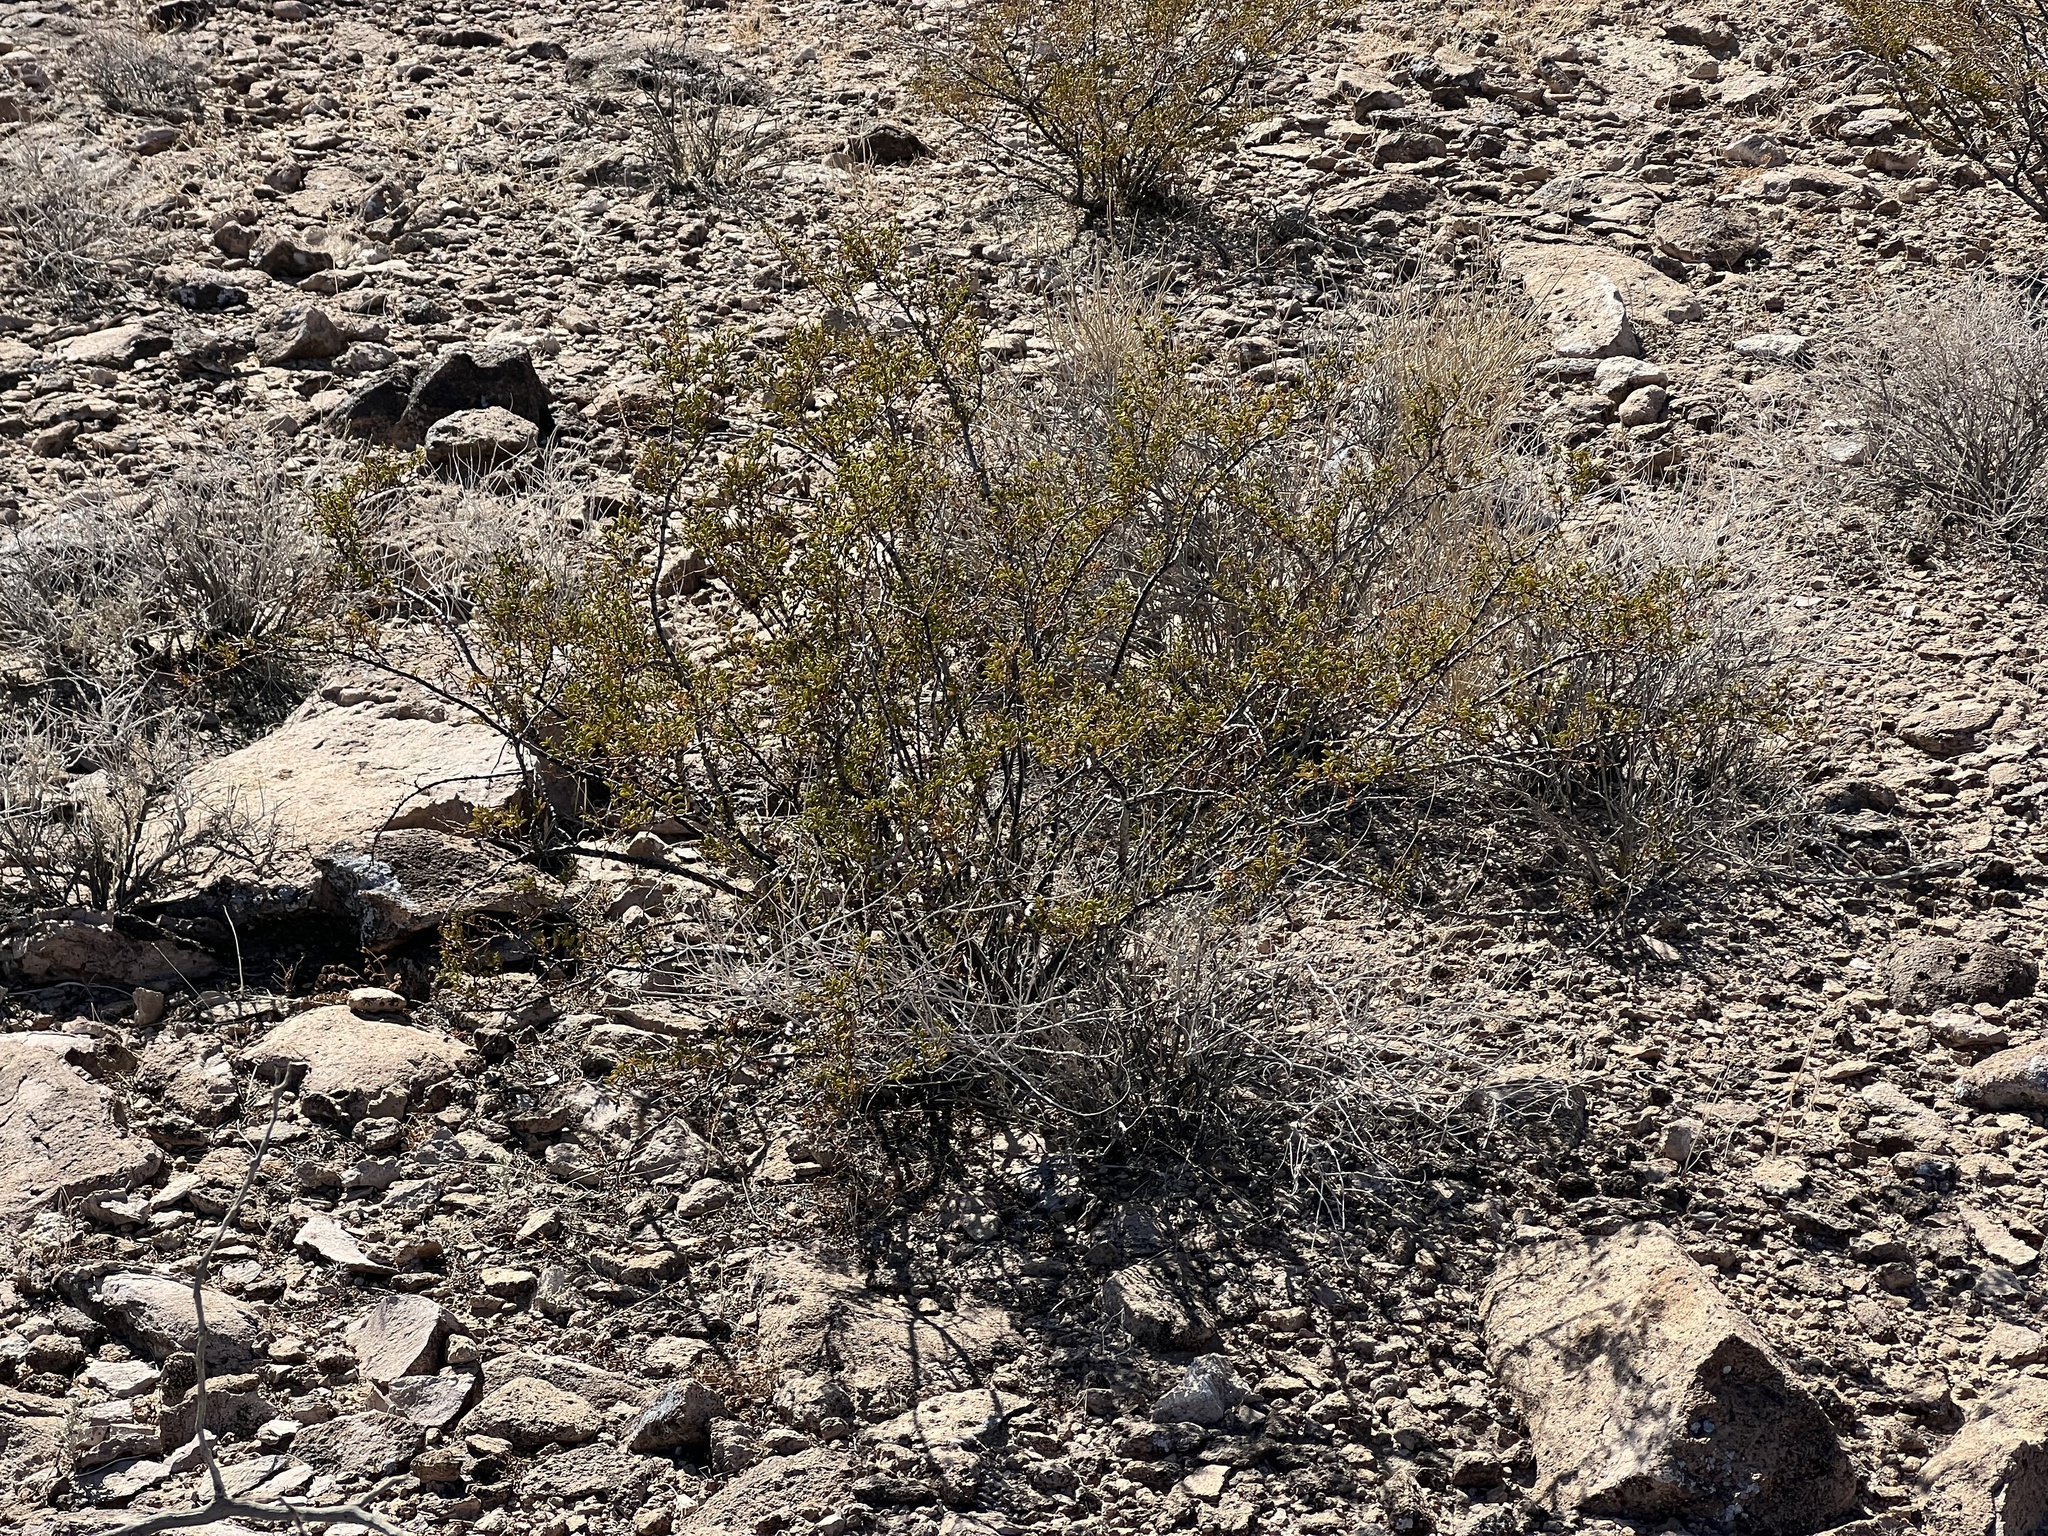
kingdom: Plantae
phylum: Tracheophyta
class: Magnoliopsida
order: Zygophyllales
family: Zygophyllaceae
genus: Larrea
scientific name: Larrea tridentata
